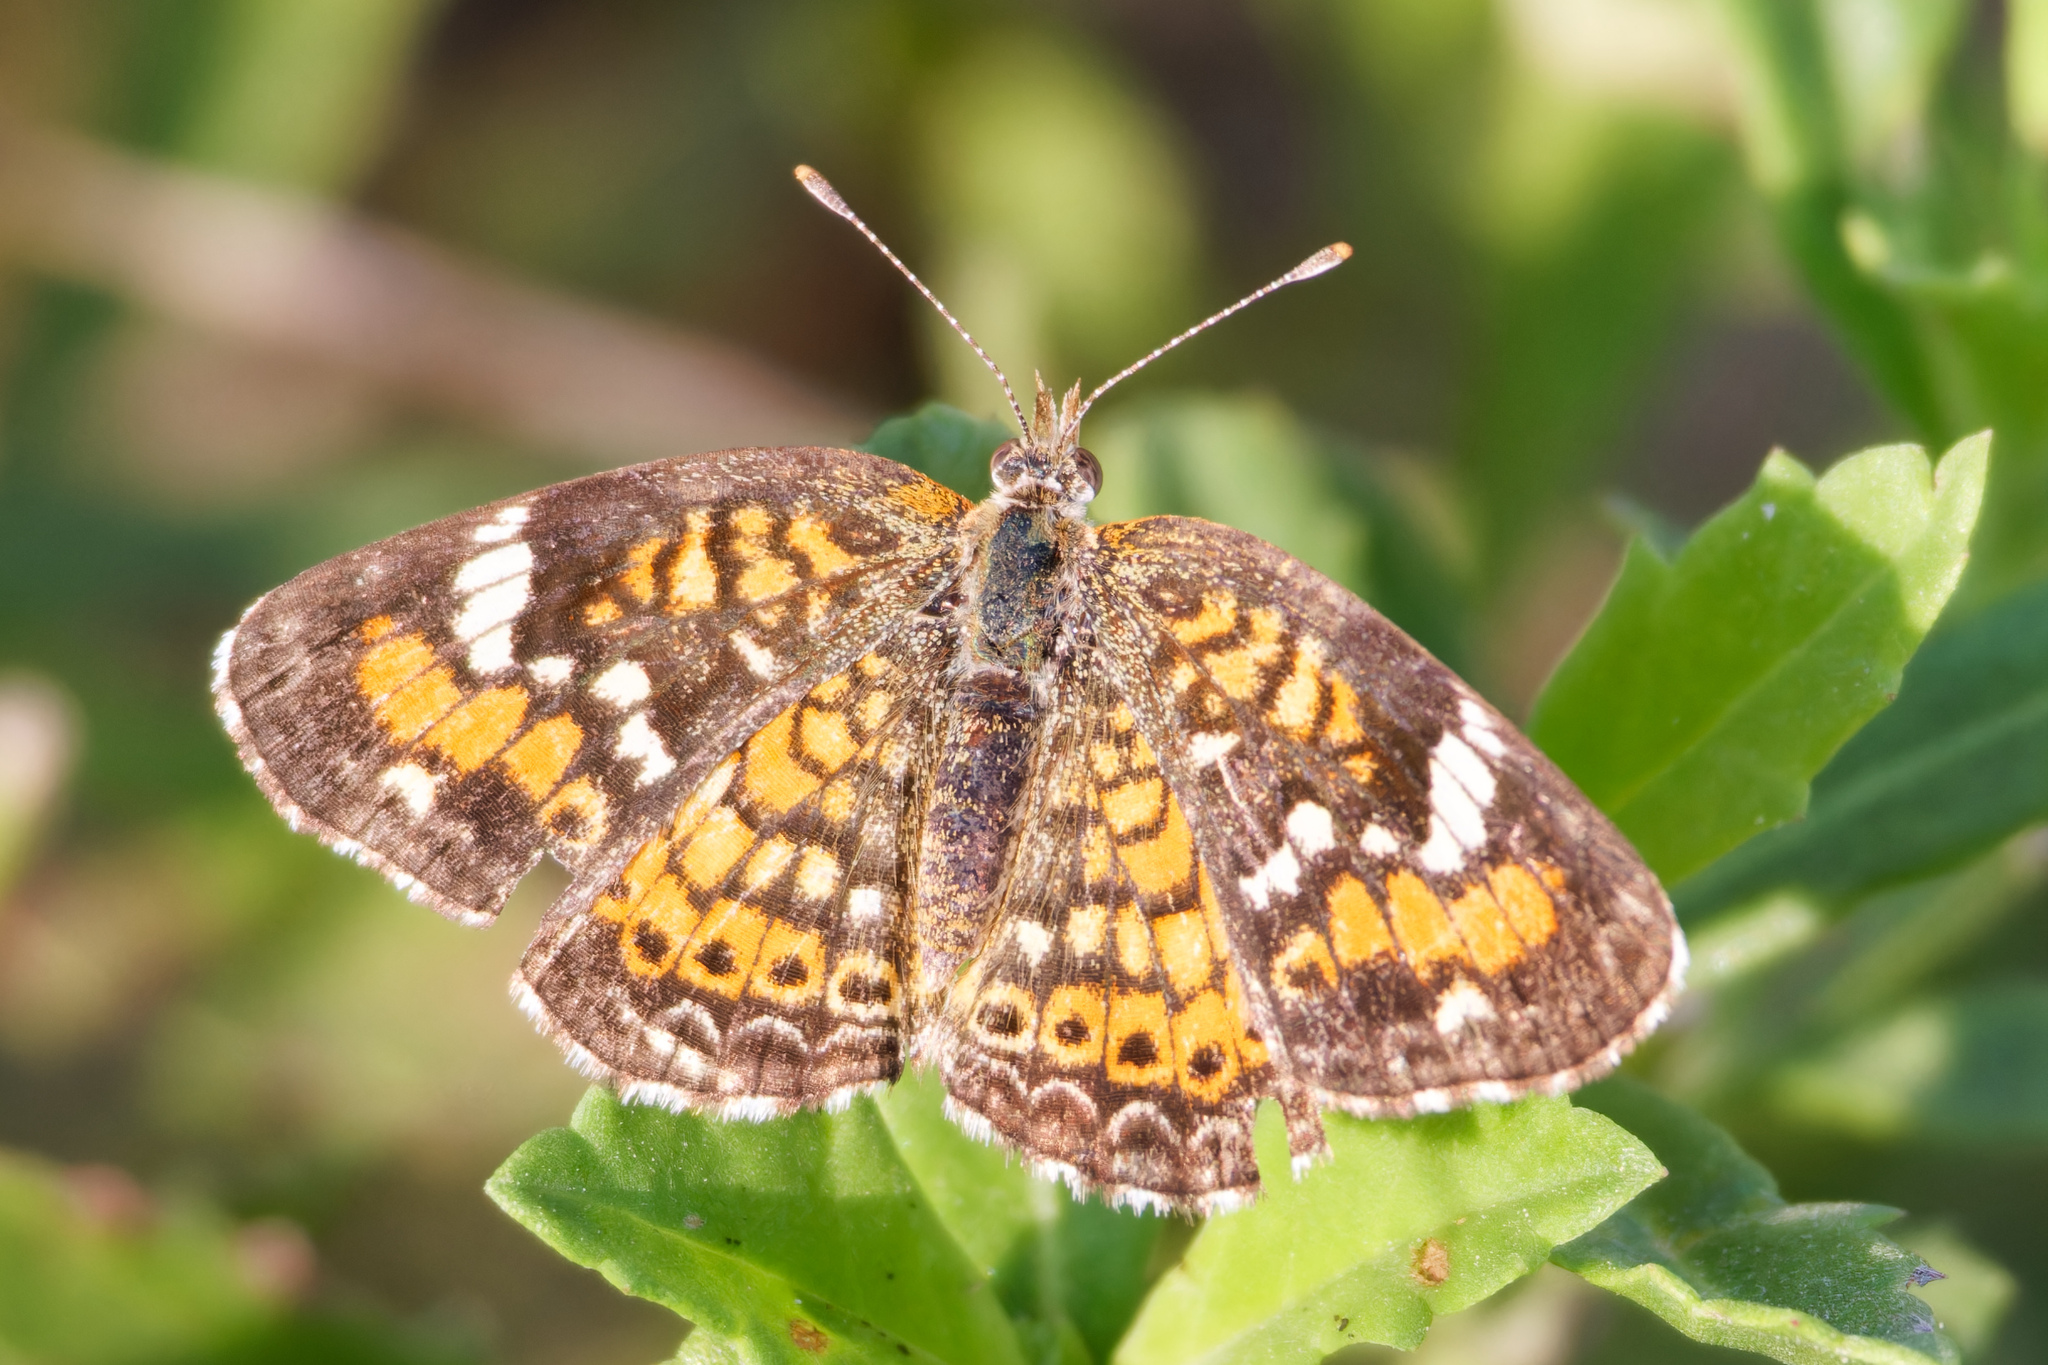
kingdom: Animalia
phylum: Arthropoda
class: Insecta
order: Lepidoptera
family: Nymphalidae
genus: Phyciodes
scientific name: Phyciodes phaon
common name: Phaon crescent
